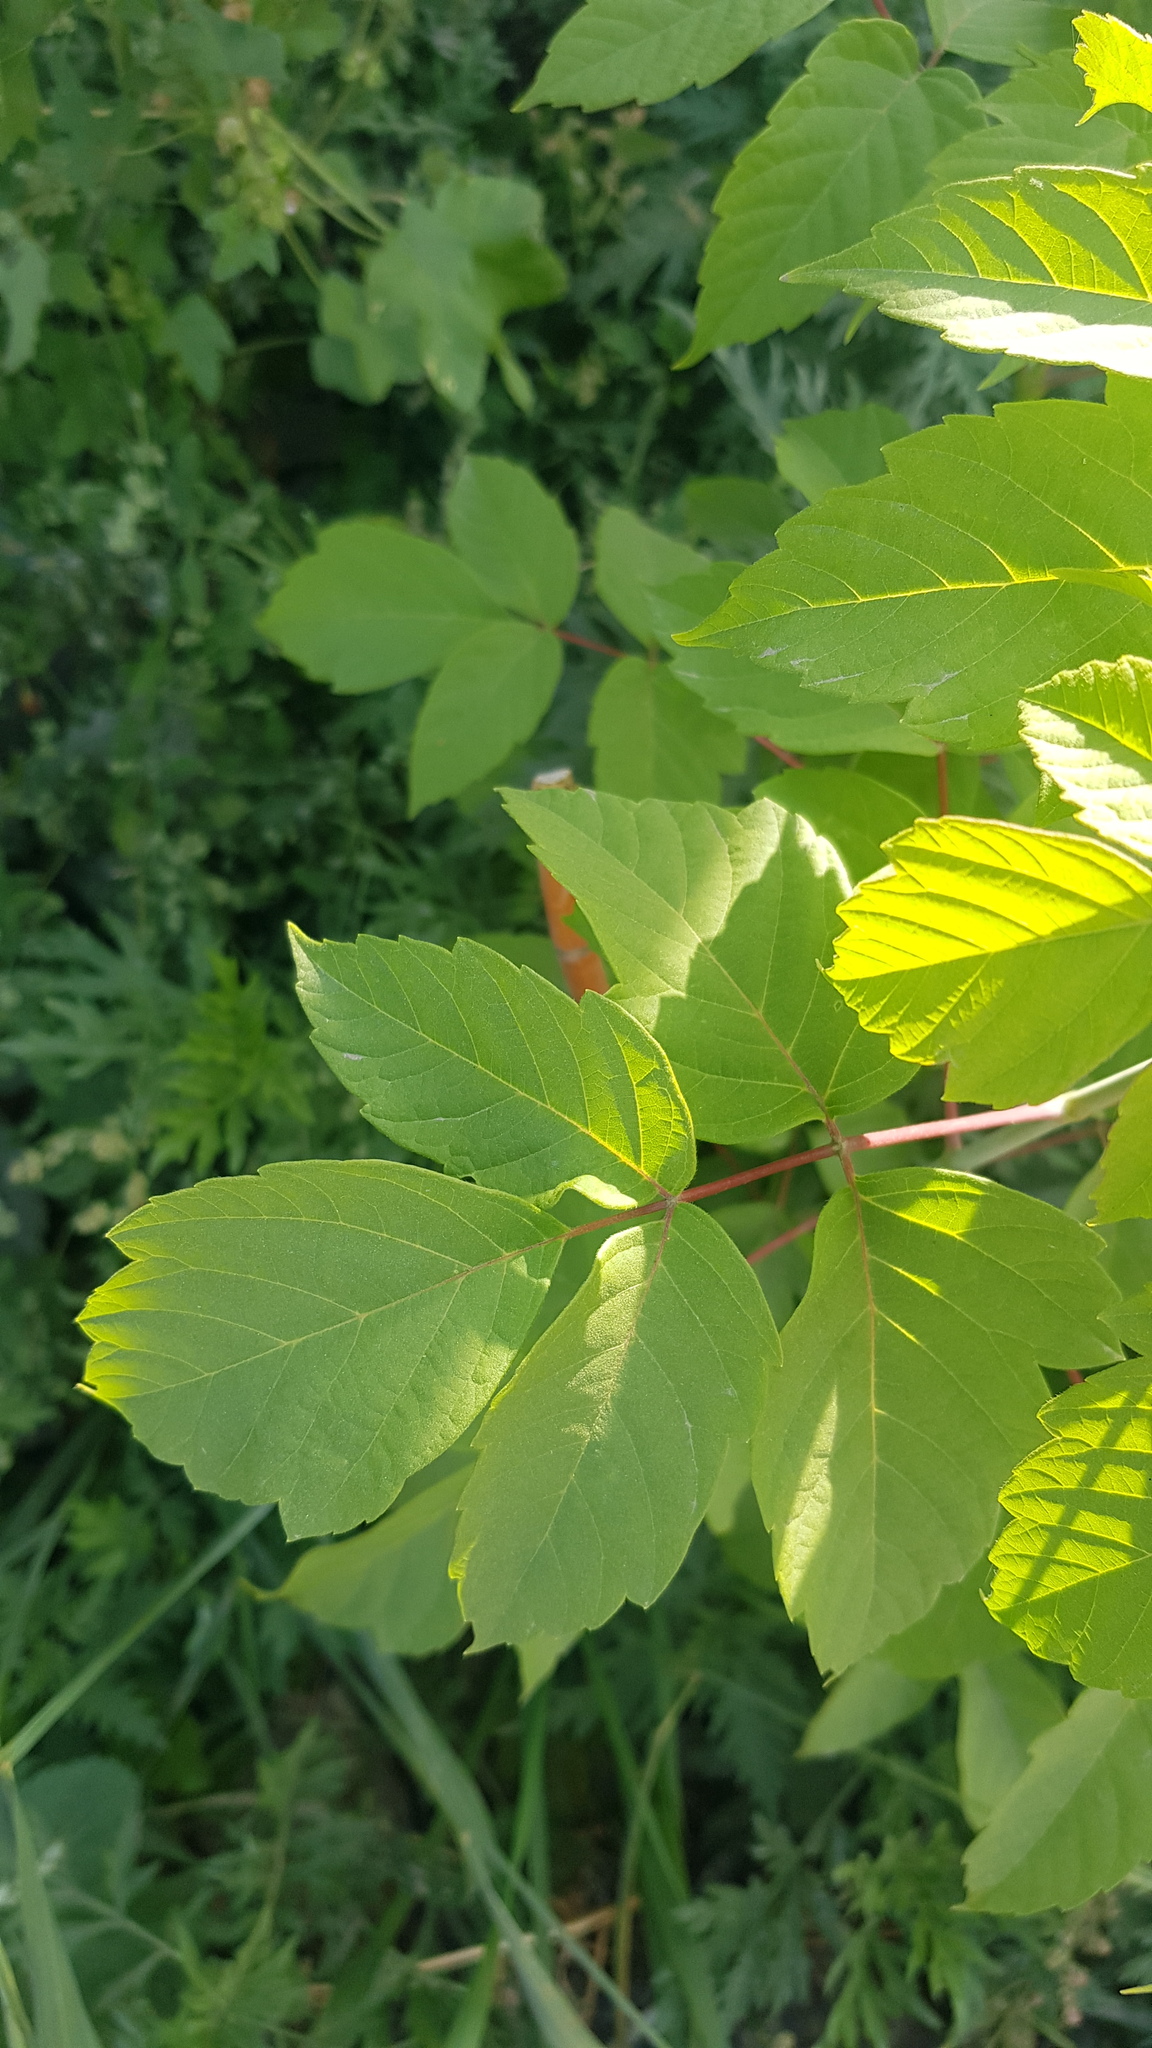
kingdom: Plantae
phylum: Tracheophyta
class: Magnoliopsida
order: Sapindales
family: Sapindaceae
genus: Acer
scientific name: Acer negundo
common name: Ashleaf maple
